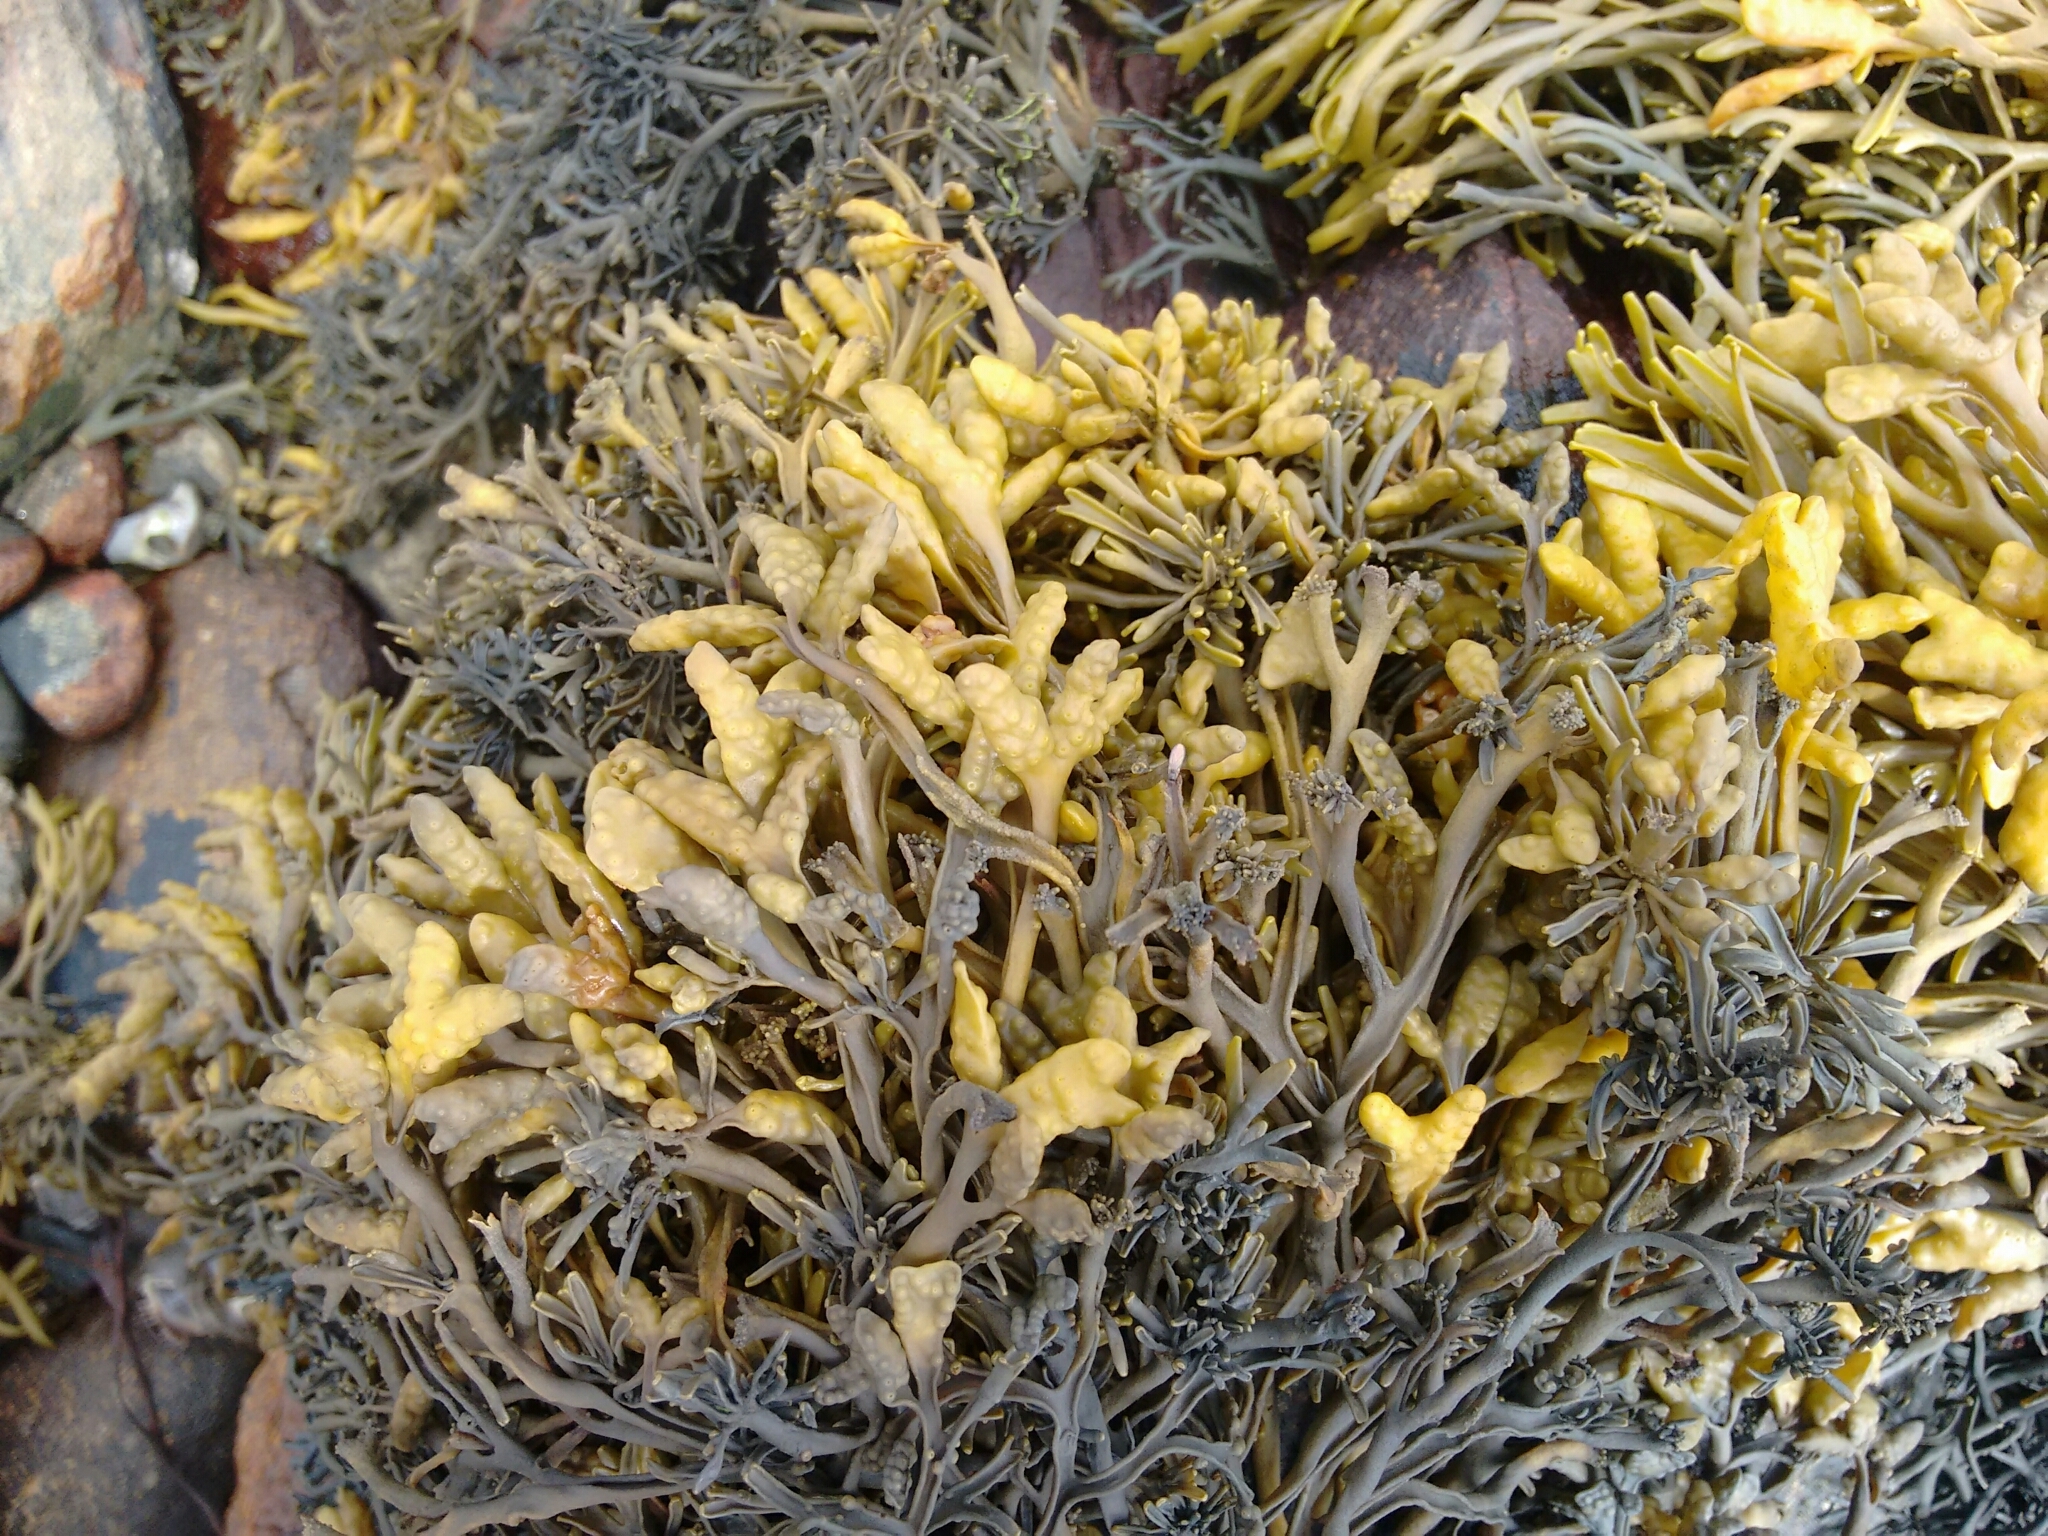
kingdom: Chromista
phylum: Ochrophyta
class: Phaeophyceae
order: Fucales
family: Fucaceae
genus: Pelvetia
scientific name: Pelvetia canaliculata
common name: Channelled wrack
